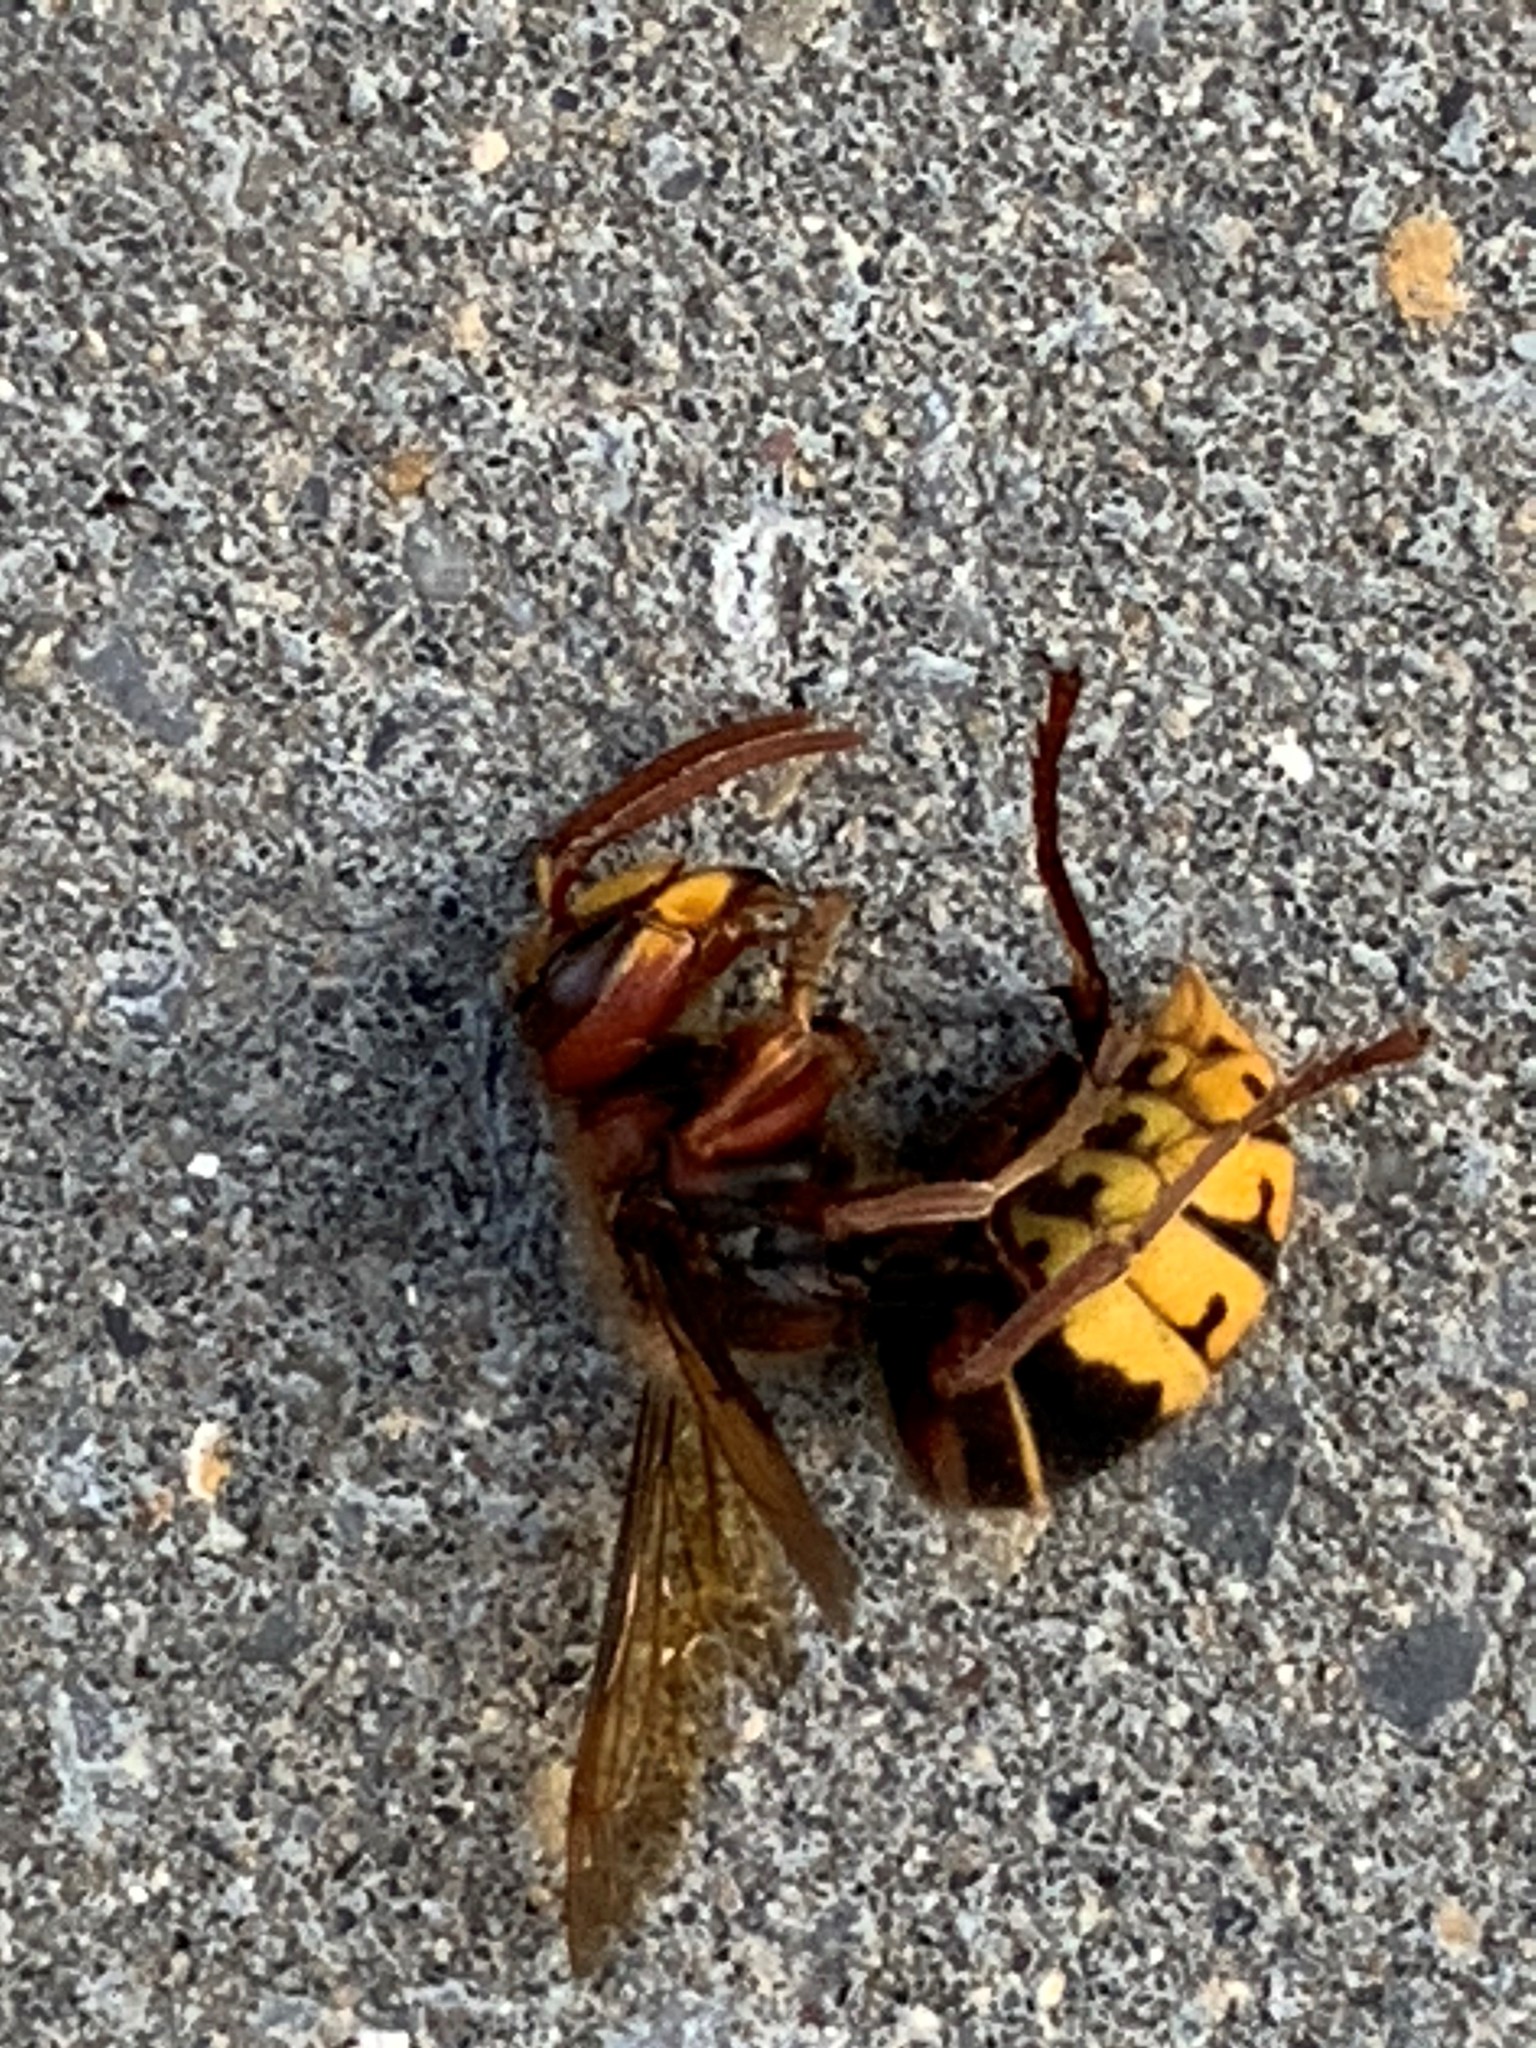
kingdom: Animalia
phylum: Arthropoda
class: Insecta
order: Hymenoptera
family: Vespidae
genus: Vespa
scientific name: Vespa crabro
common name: Hornet
